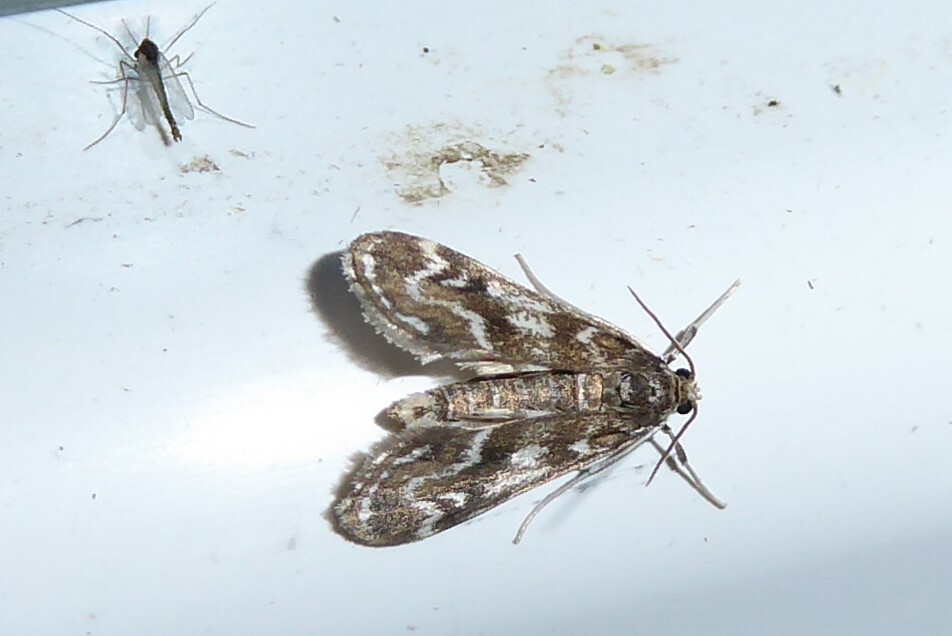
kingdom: Animalia
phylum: Arthropoda
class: Insecta
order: Lepidoptera
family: Crambidae
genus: Hygraula
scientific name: Hygraula nitens
